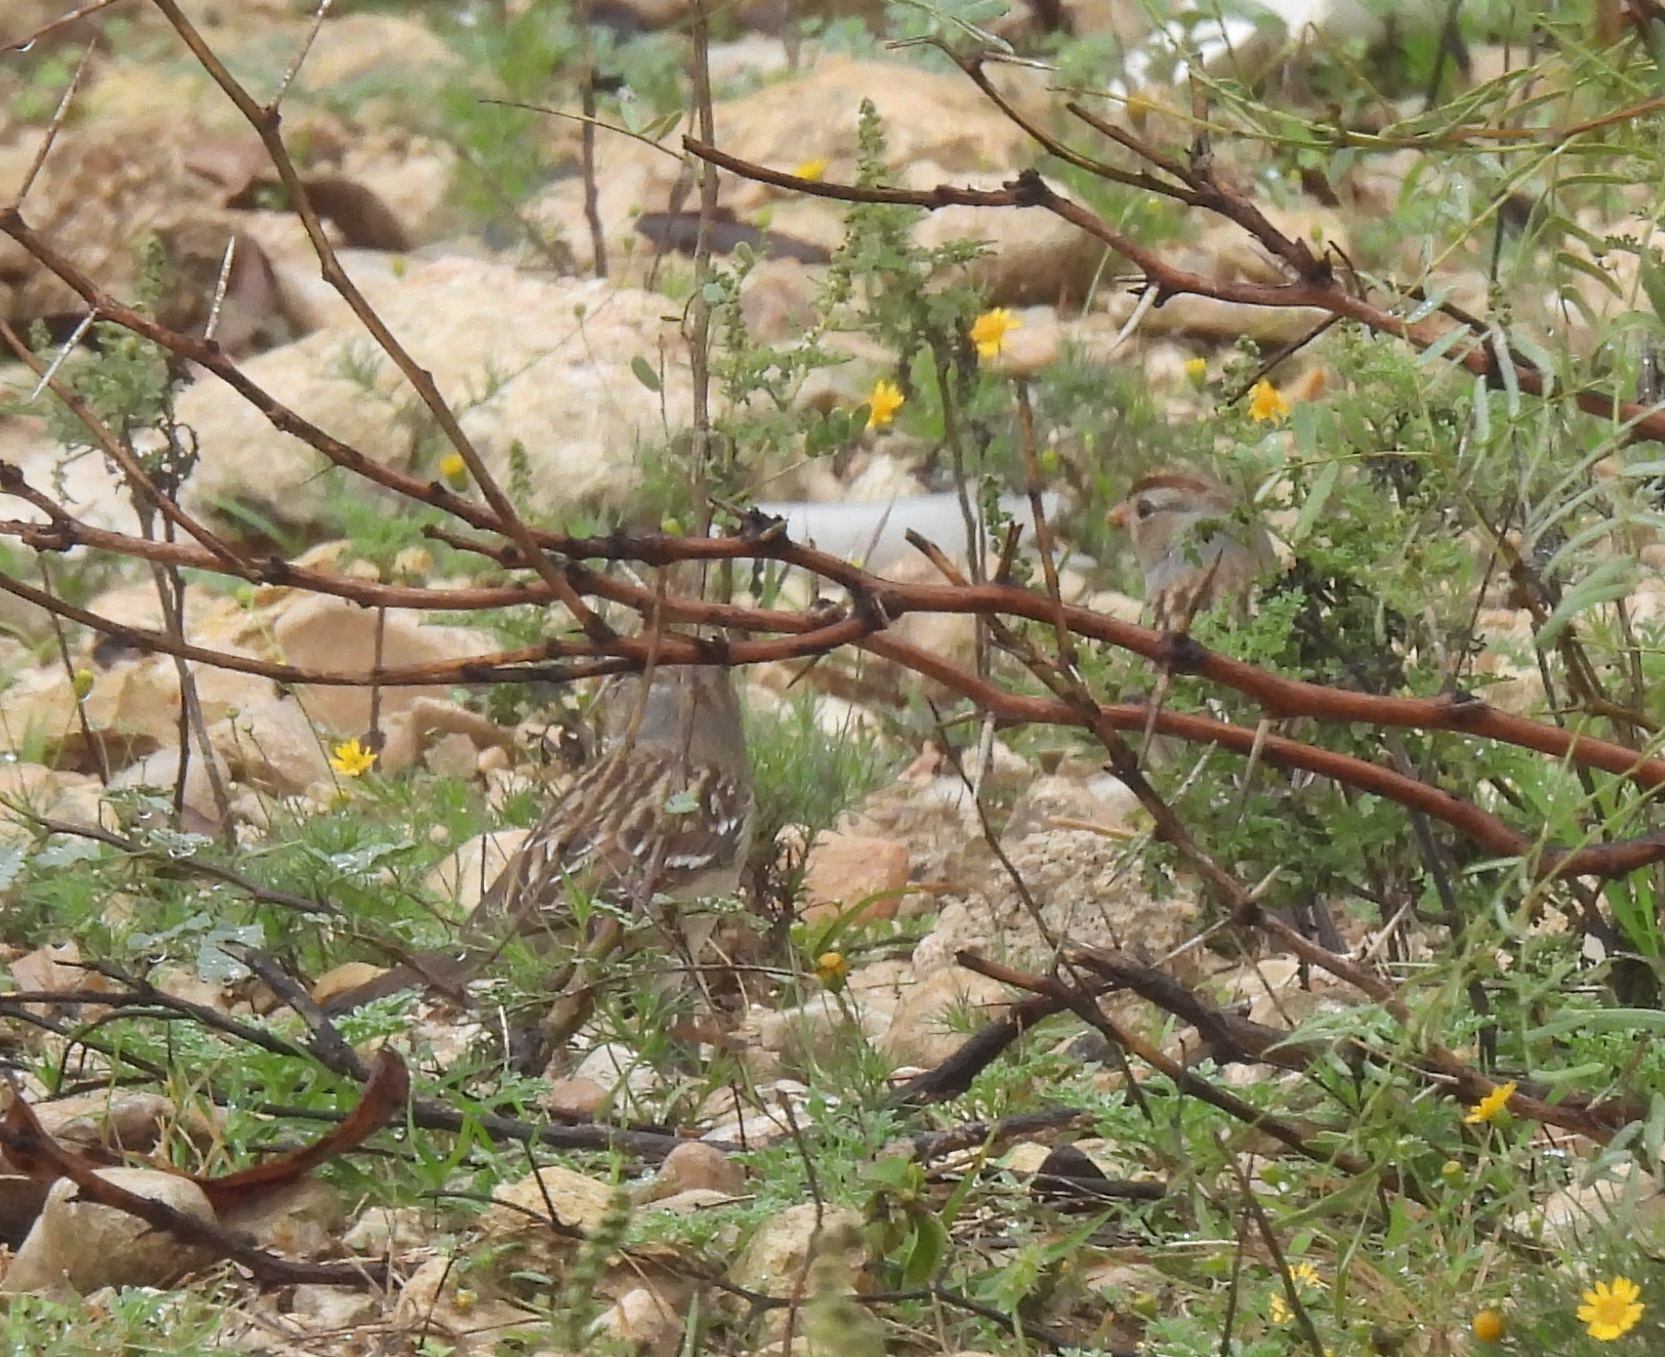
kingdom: Animalia
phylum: Chordata
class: Aves
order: Passeriformes
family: Passerellidae
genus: Zonotrichia
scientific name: Zonotrichia leucophrys
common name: White-crowned sparrow
